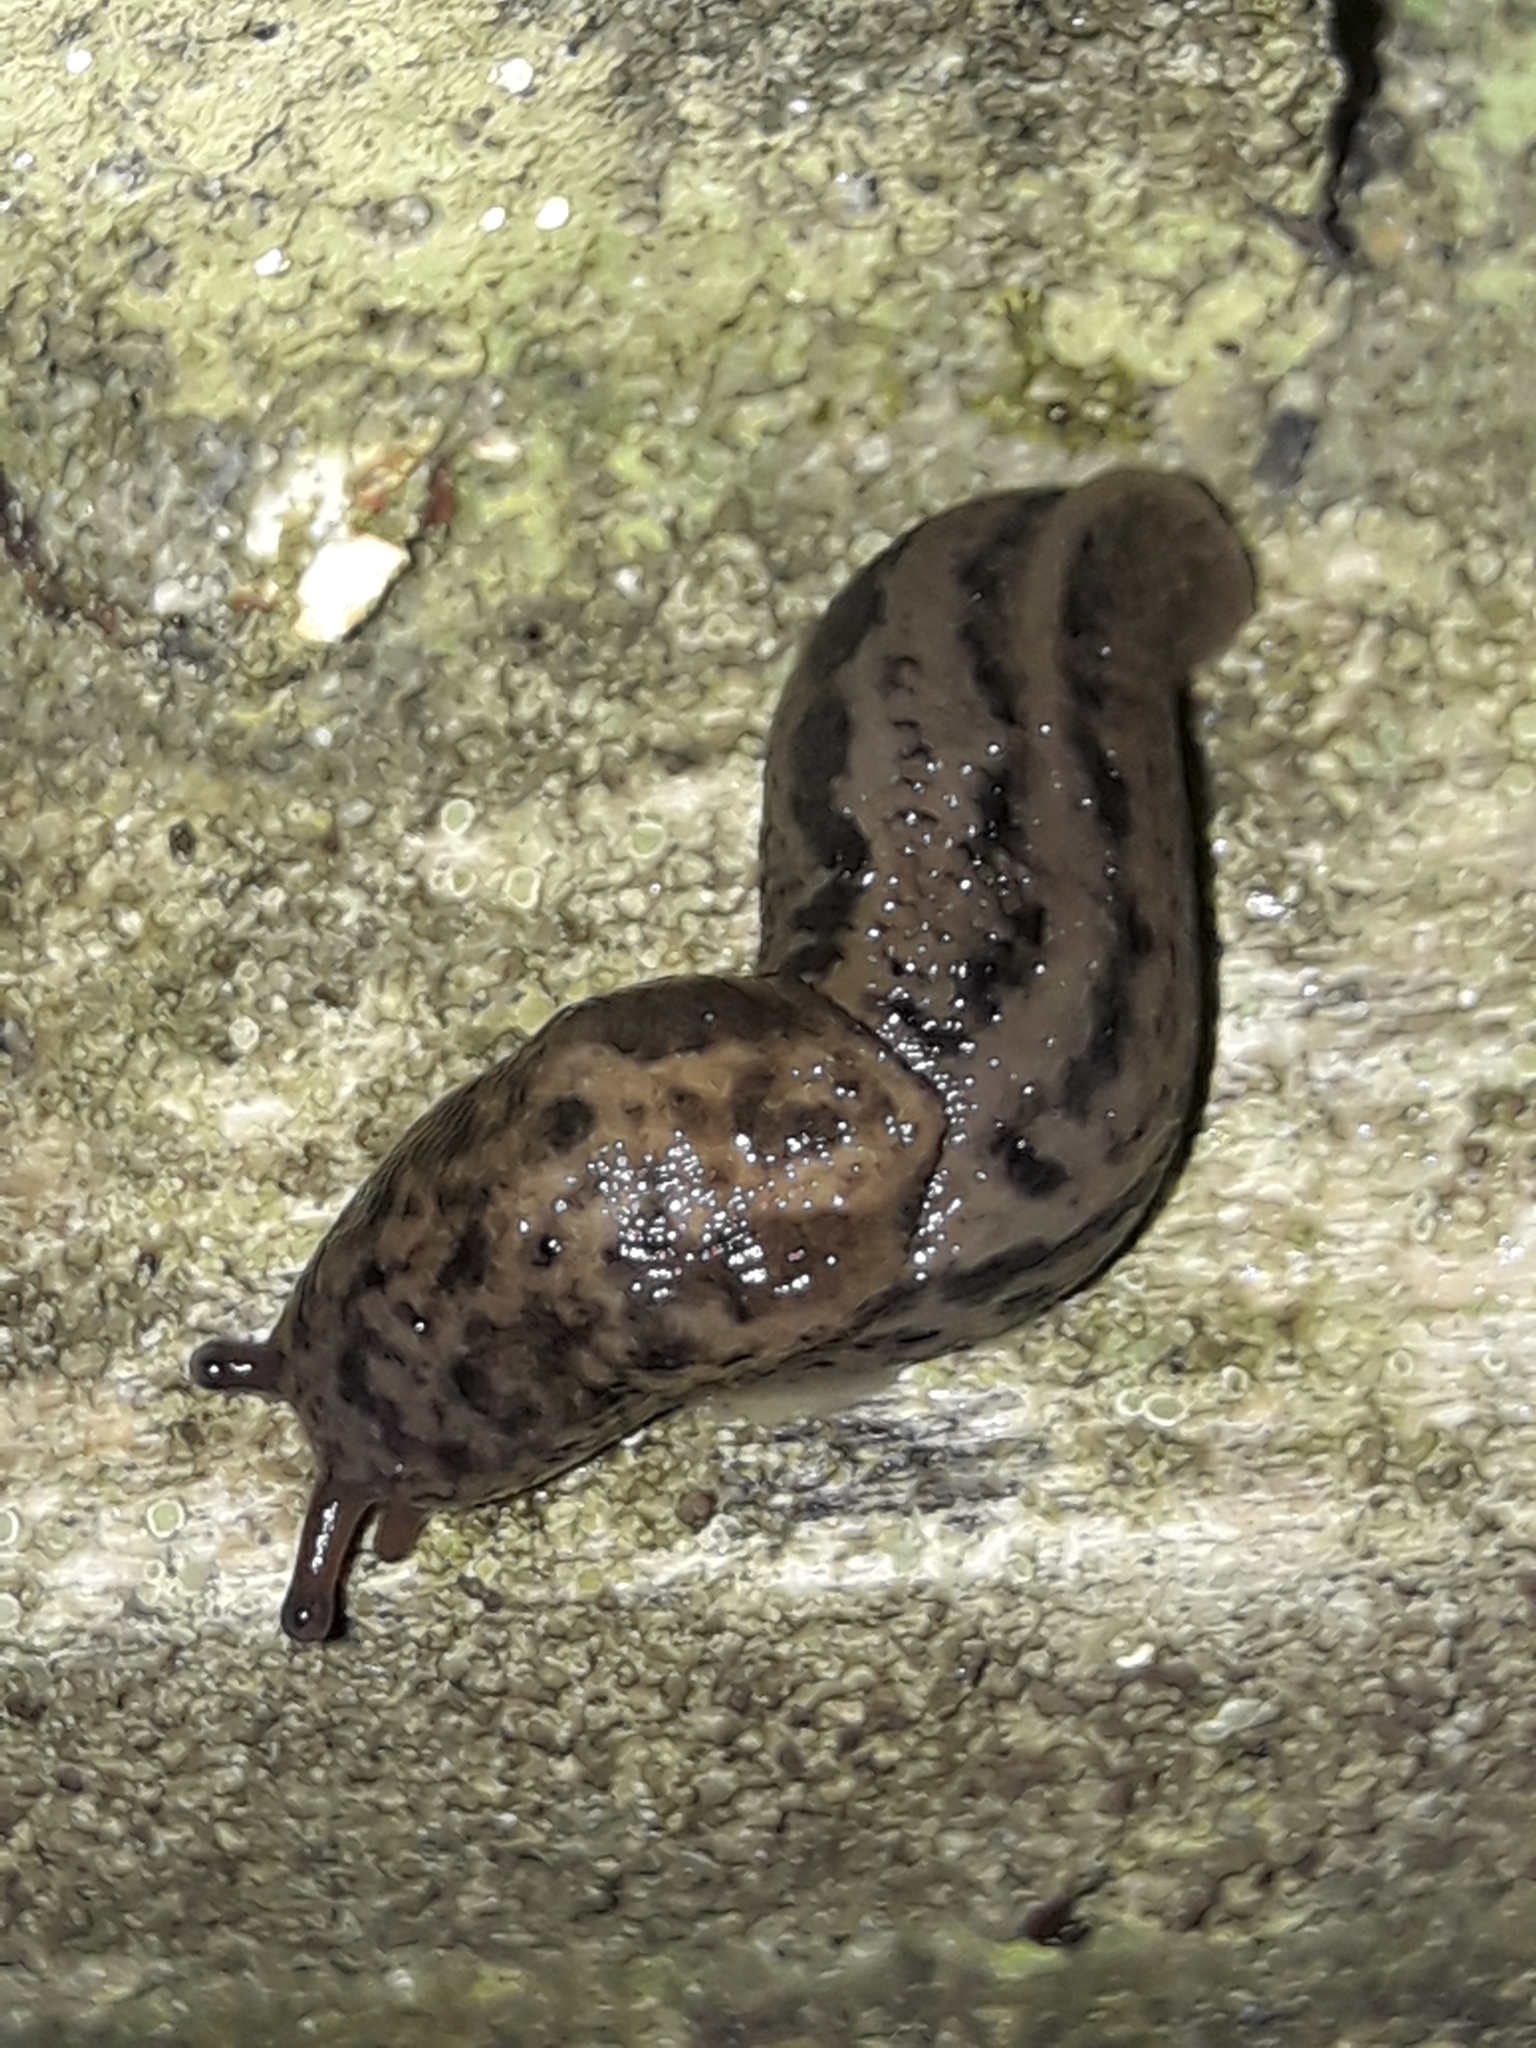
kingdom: Animalia
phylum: Mollusca
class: Gastropoda
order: Stylommatophora
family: Limacidae
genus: Limax
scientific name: Limax maximus
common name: Great grey slug
